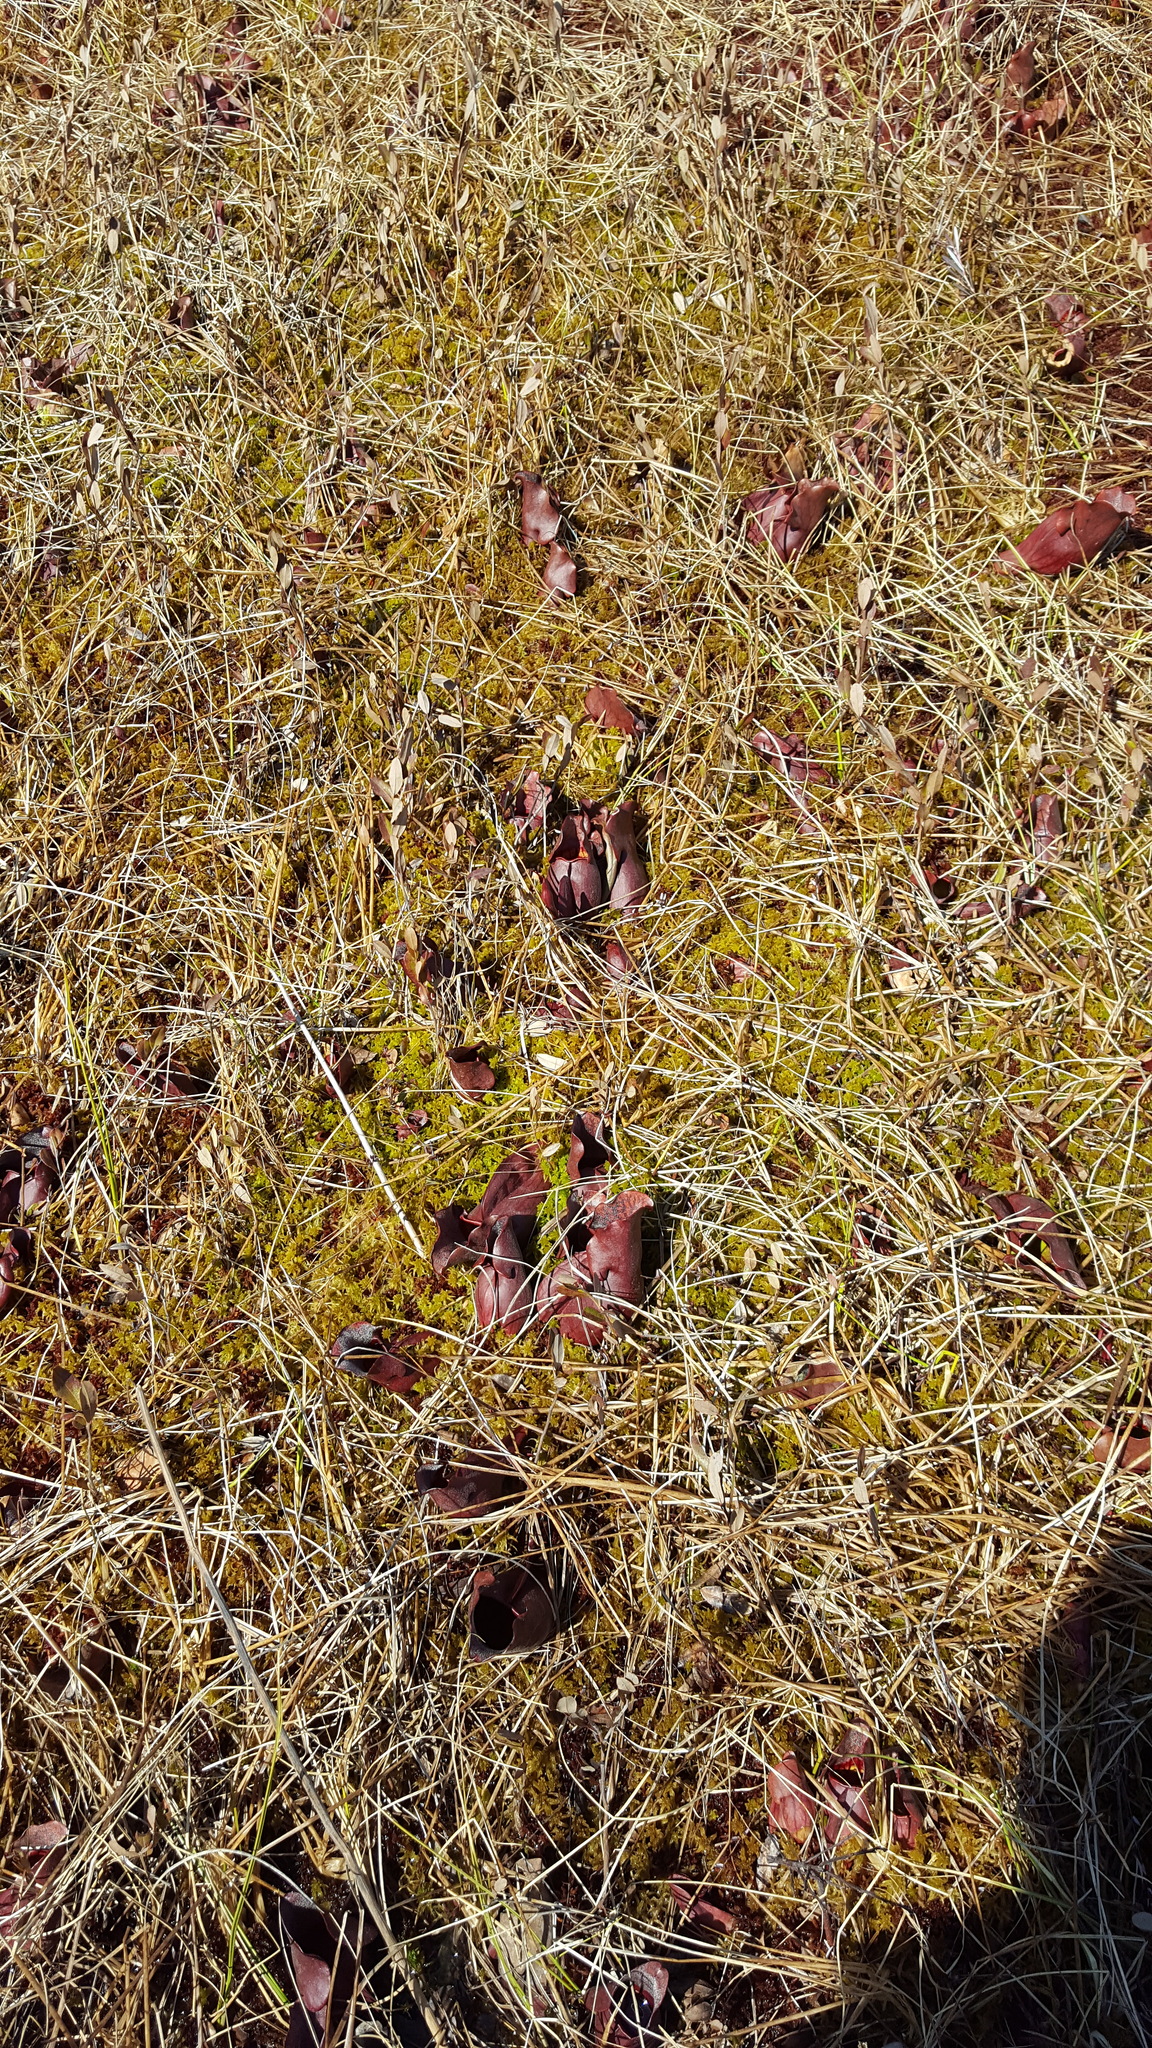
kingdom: Plantae
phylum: Tracheophyta
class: Magnoliopsida
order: Ericales
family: Sarraceniaceae
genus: Sarracenia
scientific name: Sarracenia purpurea
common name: Pitcherplant
